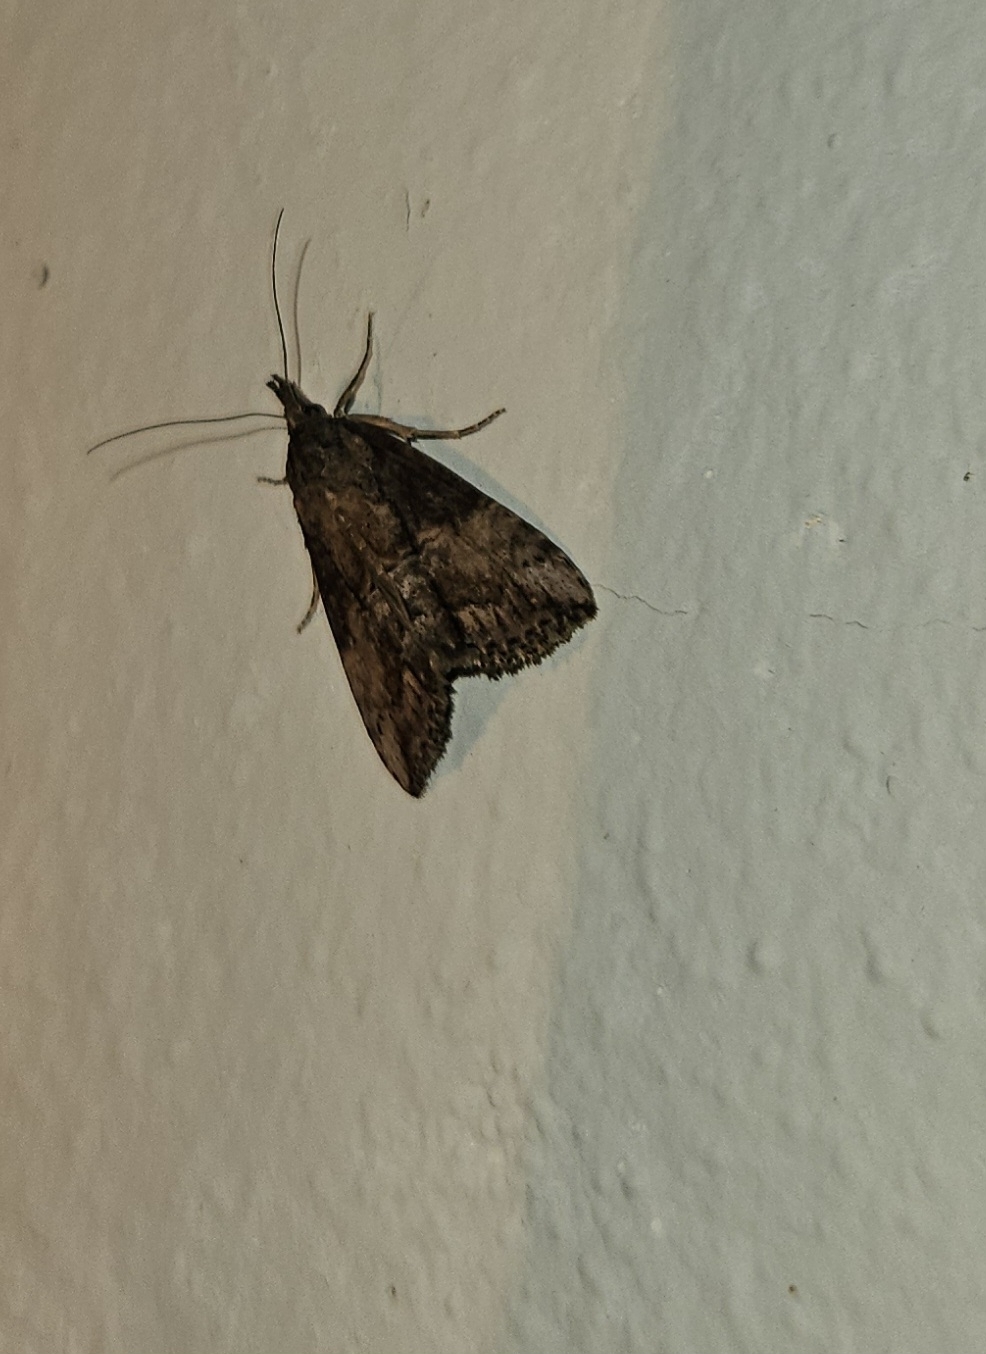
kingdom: Animalia
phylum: Arthropoda
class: Insecta
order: Lepidoptera
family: Erebidae
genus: Hypena
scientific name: Hypena scabra
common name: Green cloverworm
